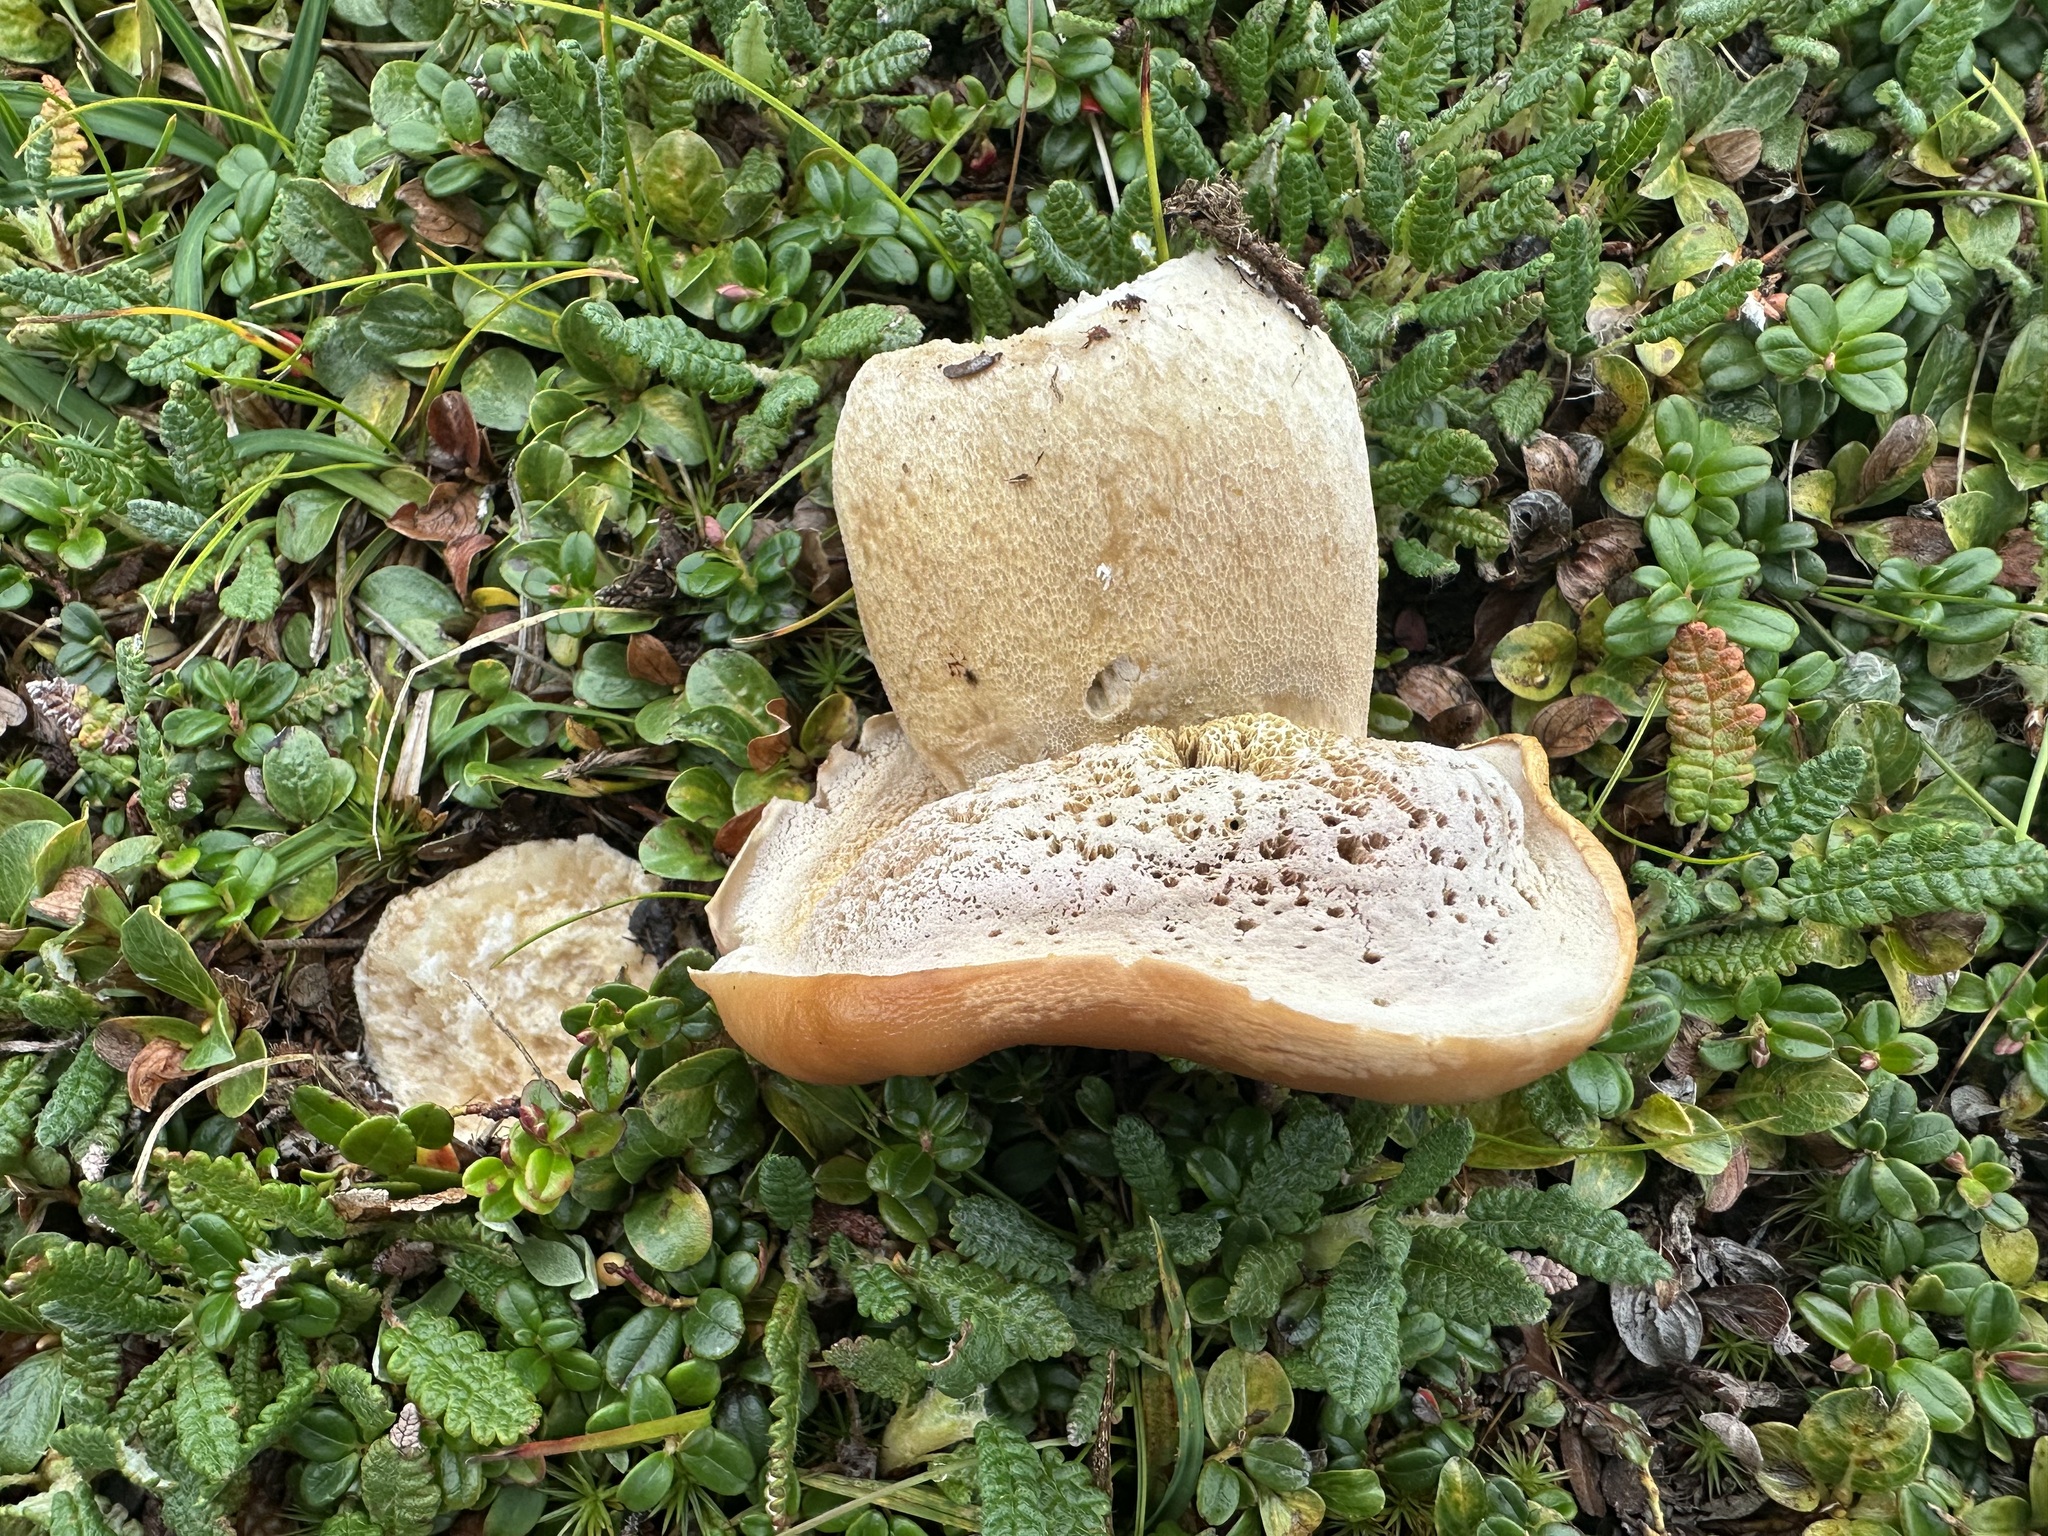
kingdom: Fungi
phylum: Basidiomycota
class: Agaricomycetes
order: Boletales
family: Boletaceae
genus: Boletus
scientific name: Boletus edulis
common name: Cep
